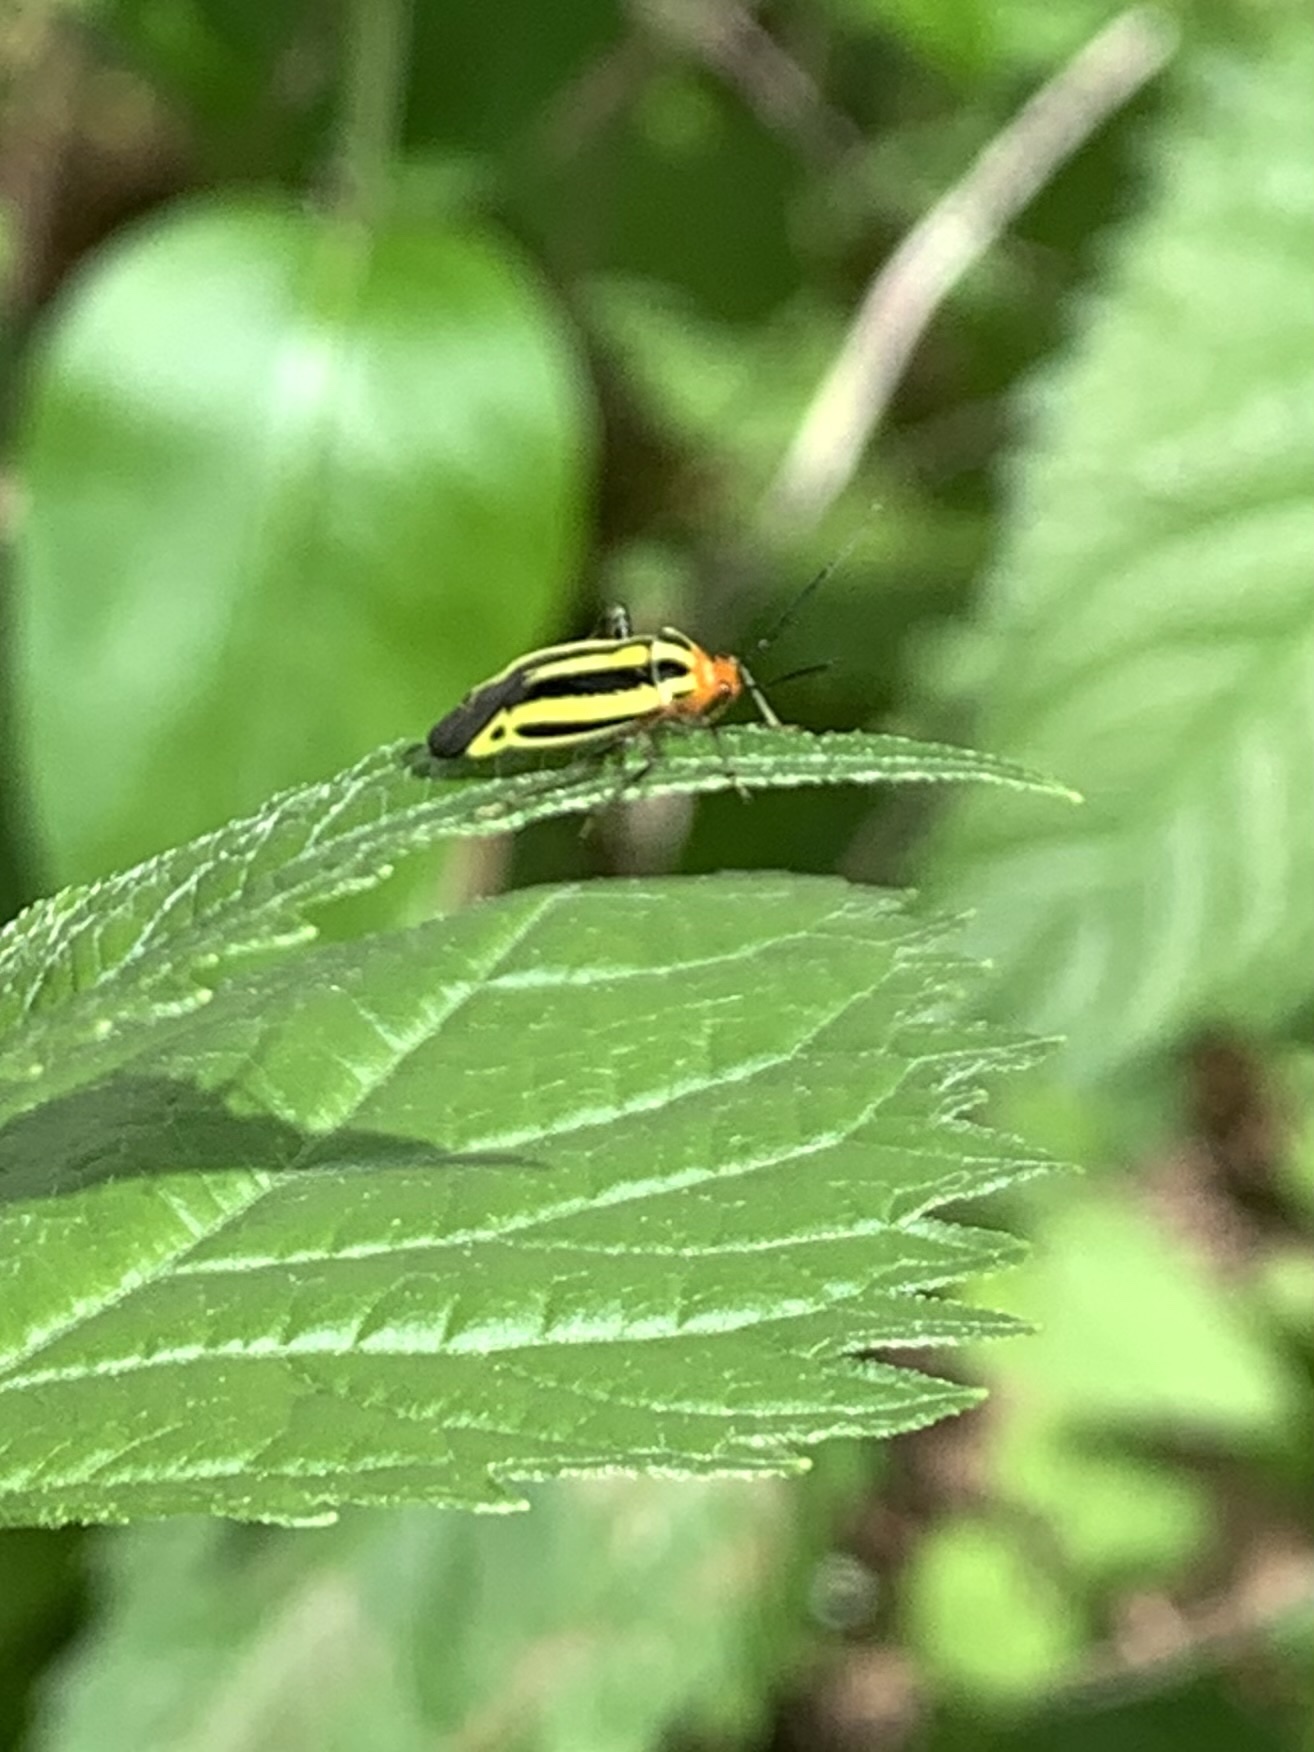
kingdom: Animalia
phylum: Arthropoda
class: Insecta
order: Hemiptera
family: Miridae
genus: Poecilocapsus
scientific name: Poecilocapsus lineatus
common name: Four-lined plant bug
